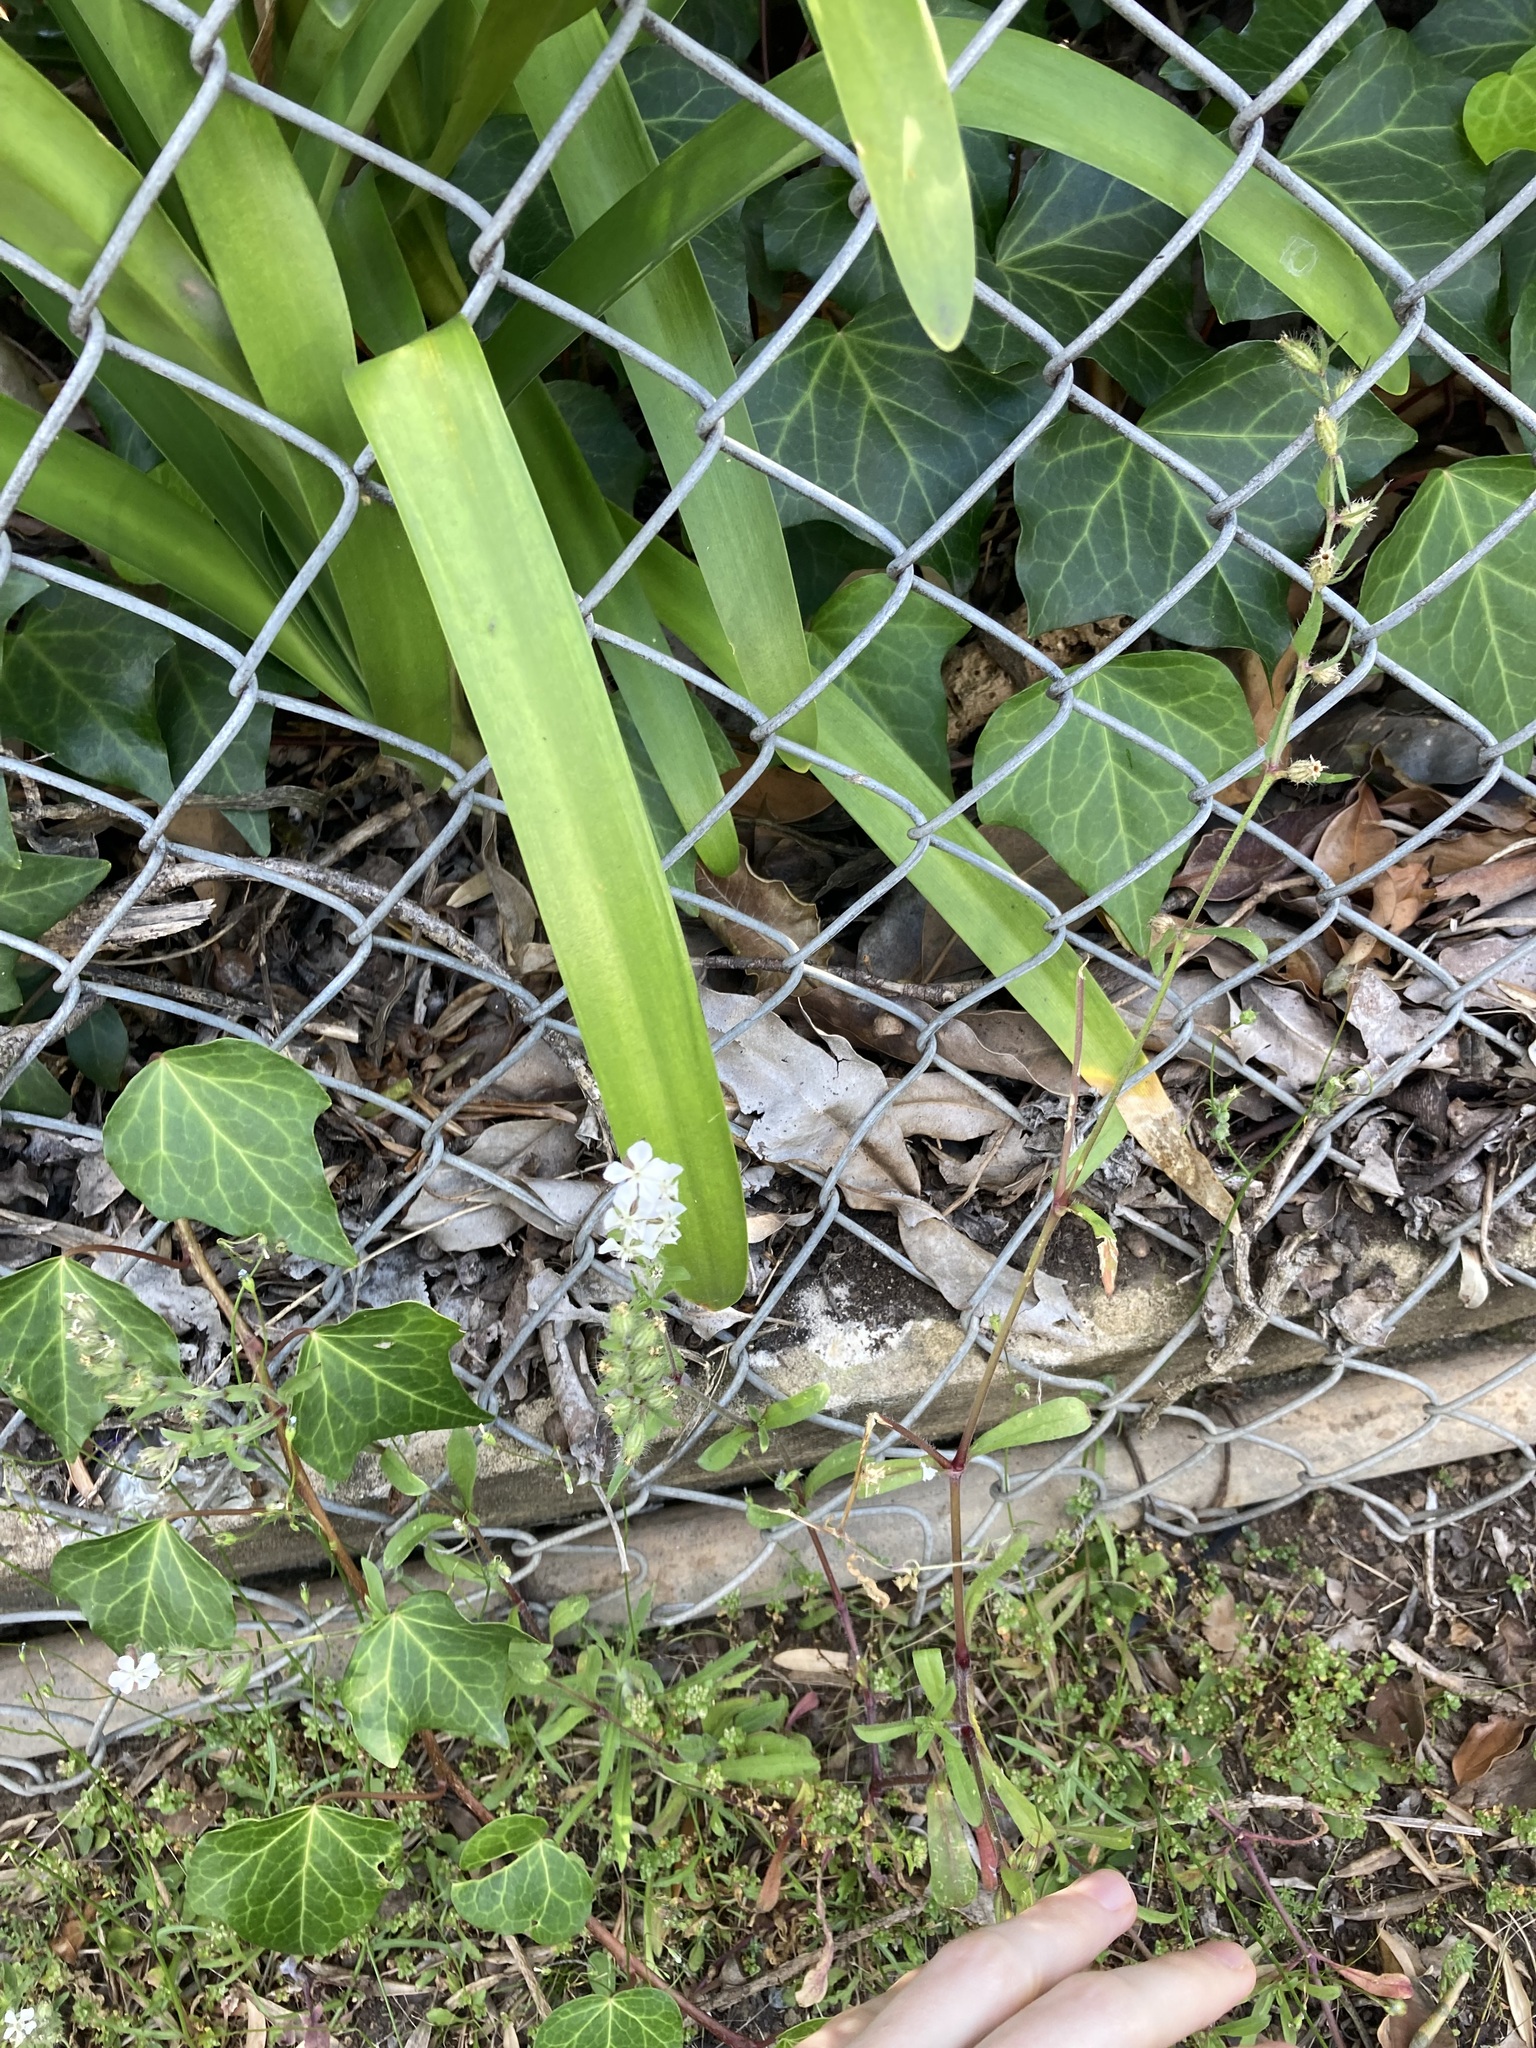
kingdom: Plantae
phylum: Tracheophyta
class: Magnoliopsida
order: Caryophyllales
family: Caryophyllaceae
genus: Silene
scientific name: Silene gallica
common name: Small-flowered catchfly
